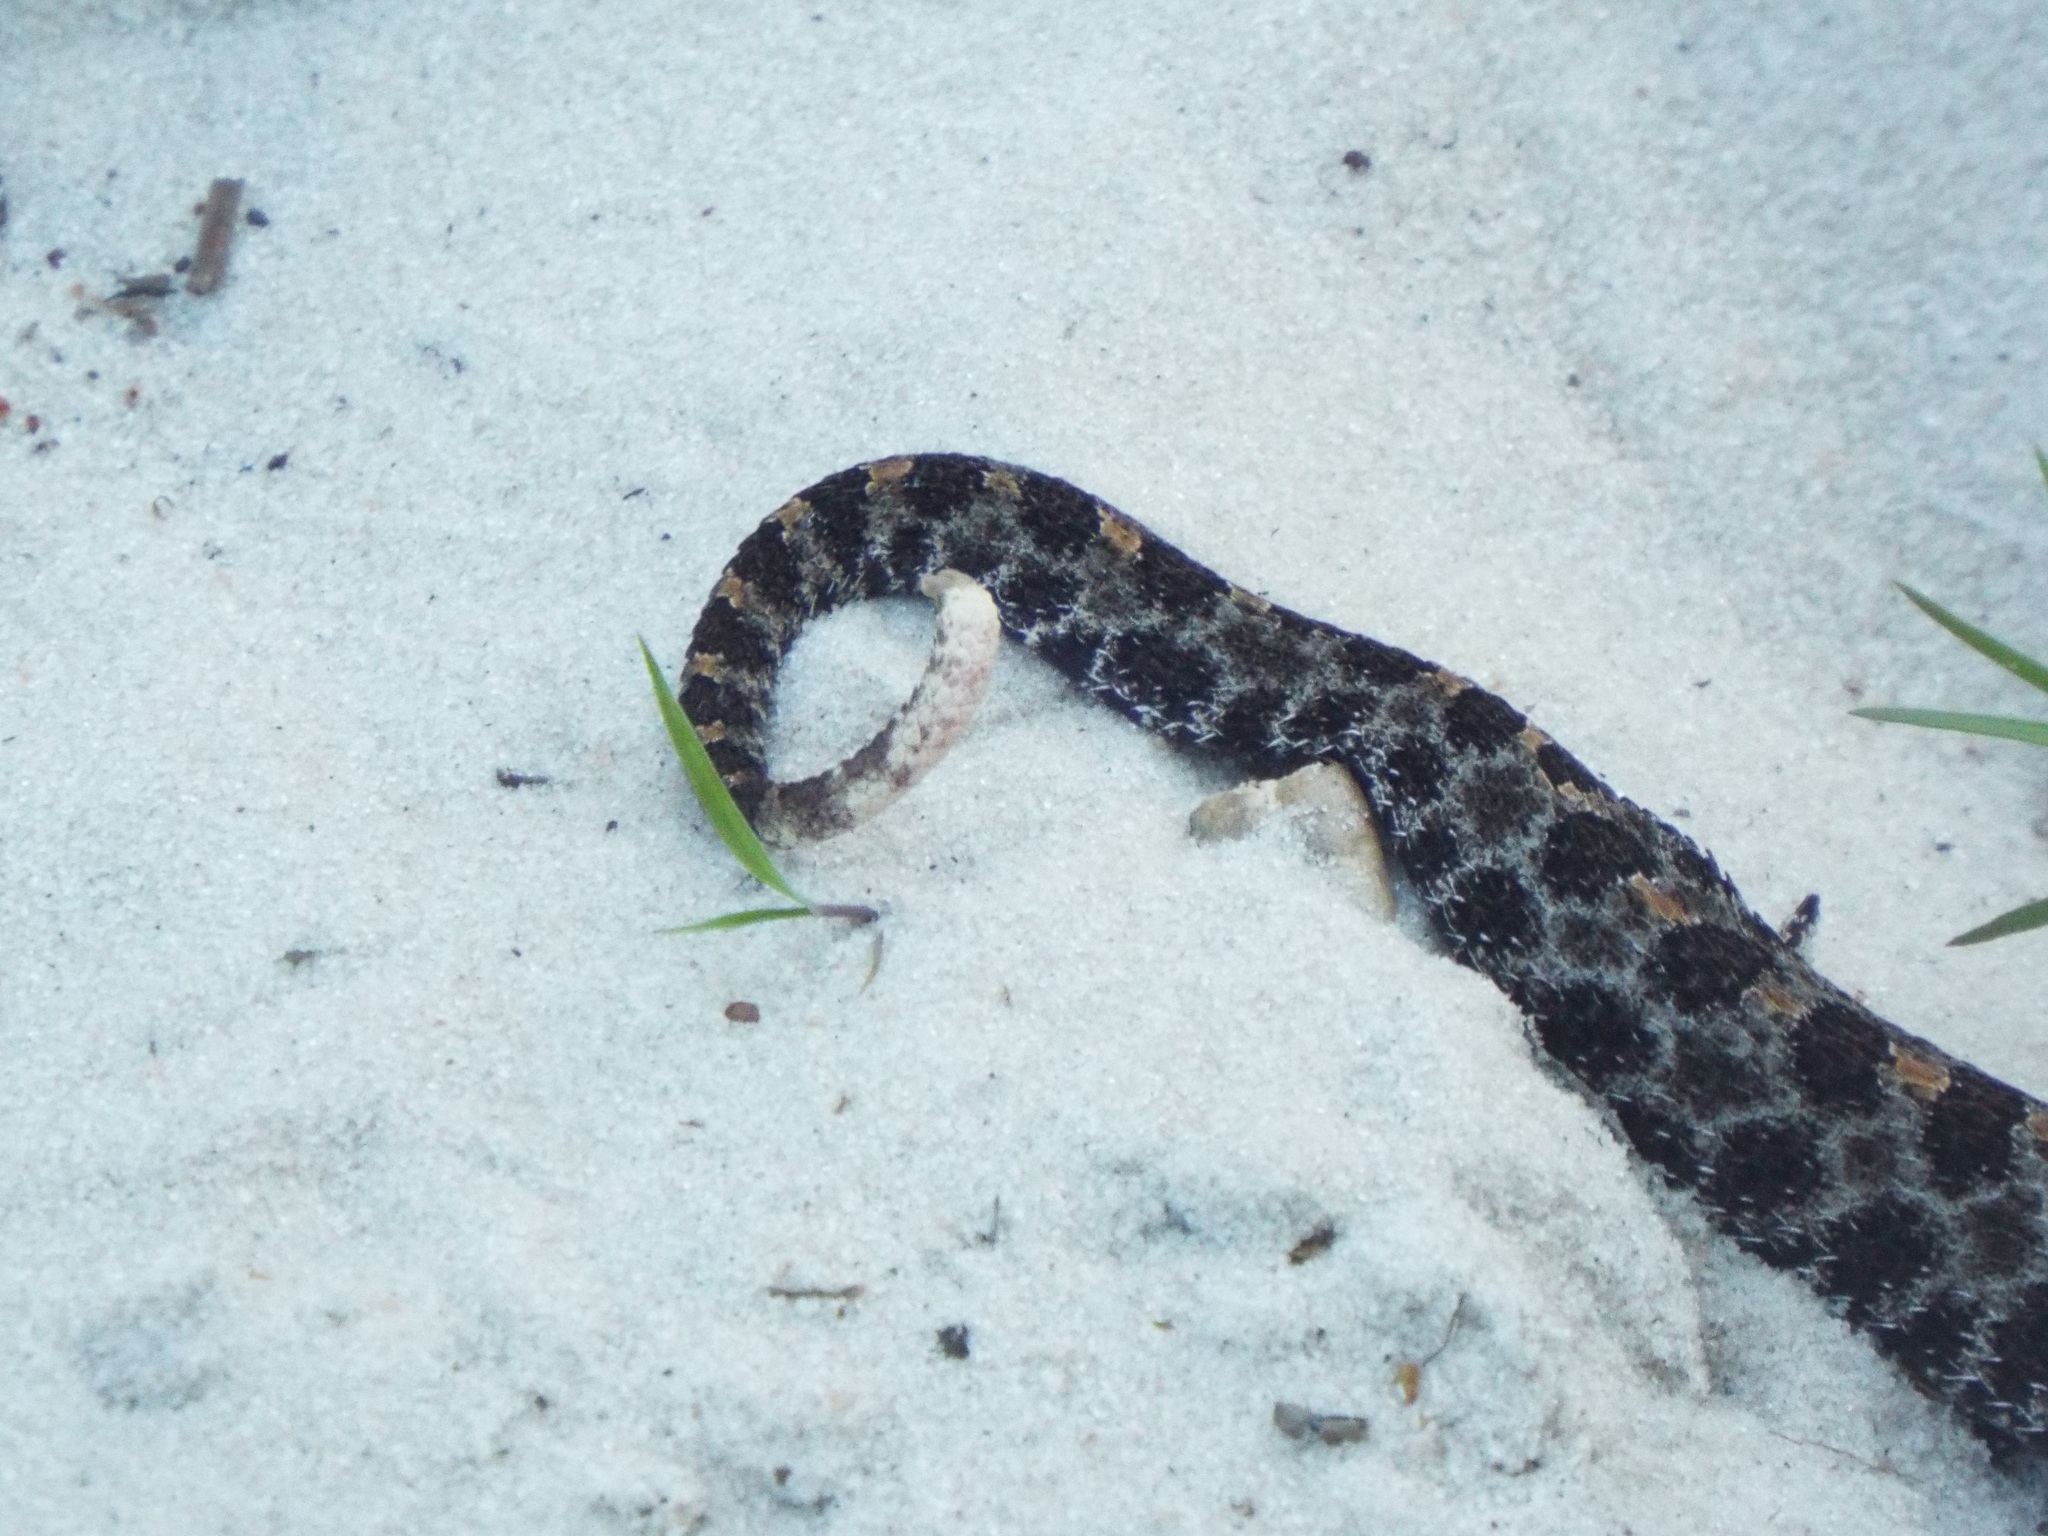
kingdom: Animalia
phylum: Chordata
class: Squamata
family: Viperidae
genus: Sistrurus
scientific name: Sistrurus miliarius
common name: Pygmy rattlesnake
